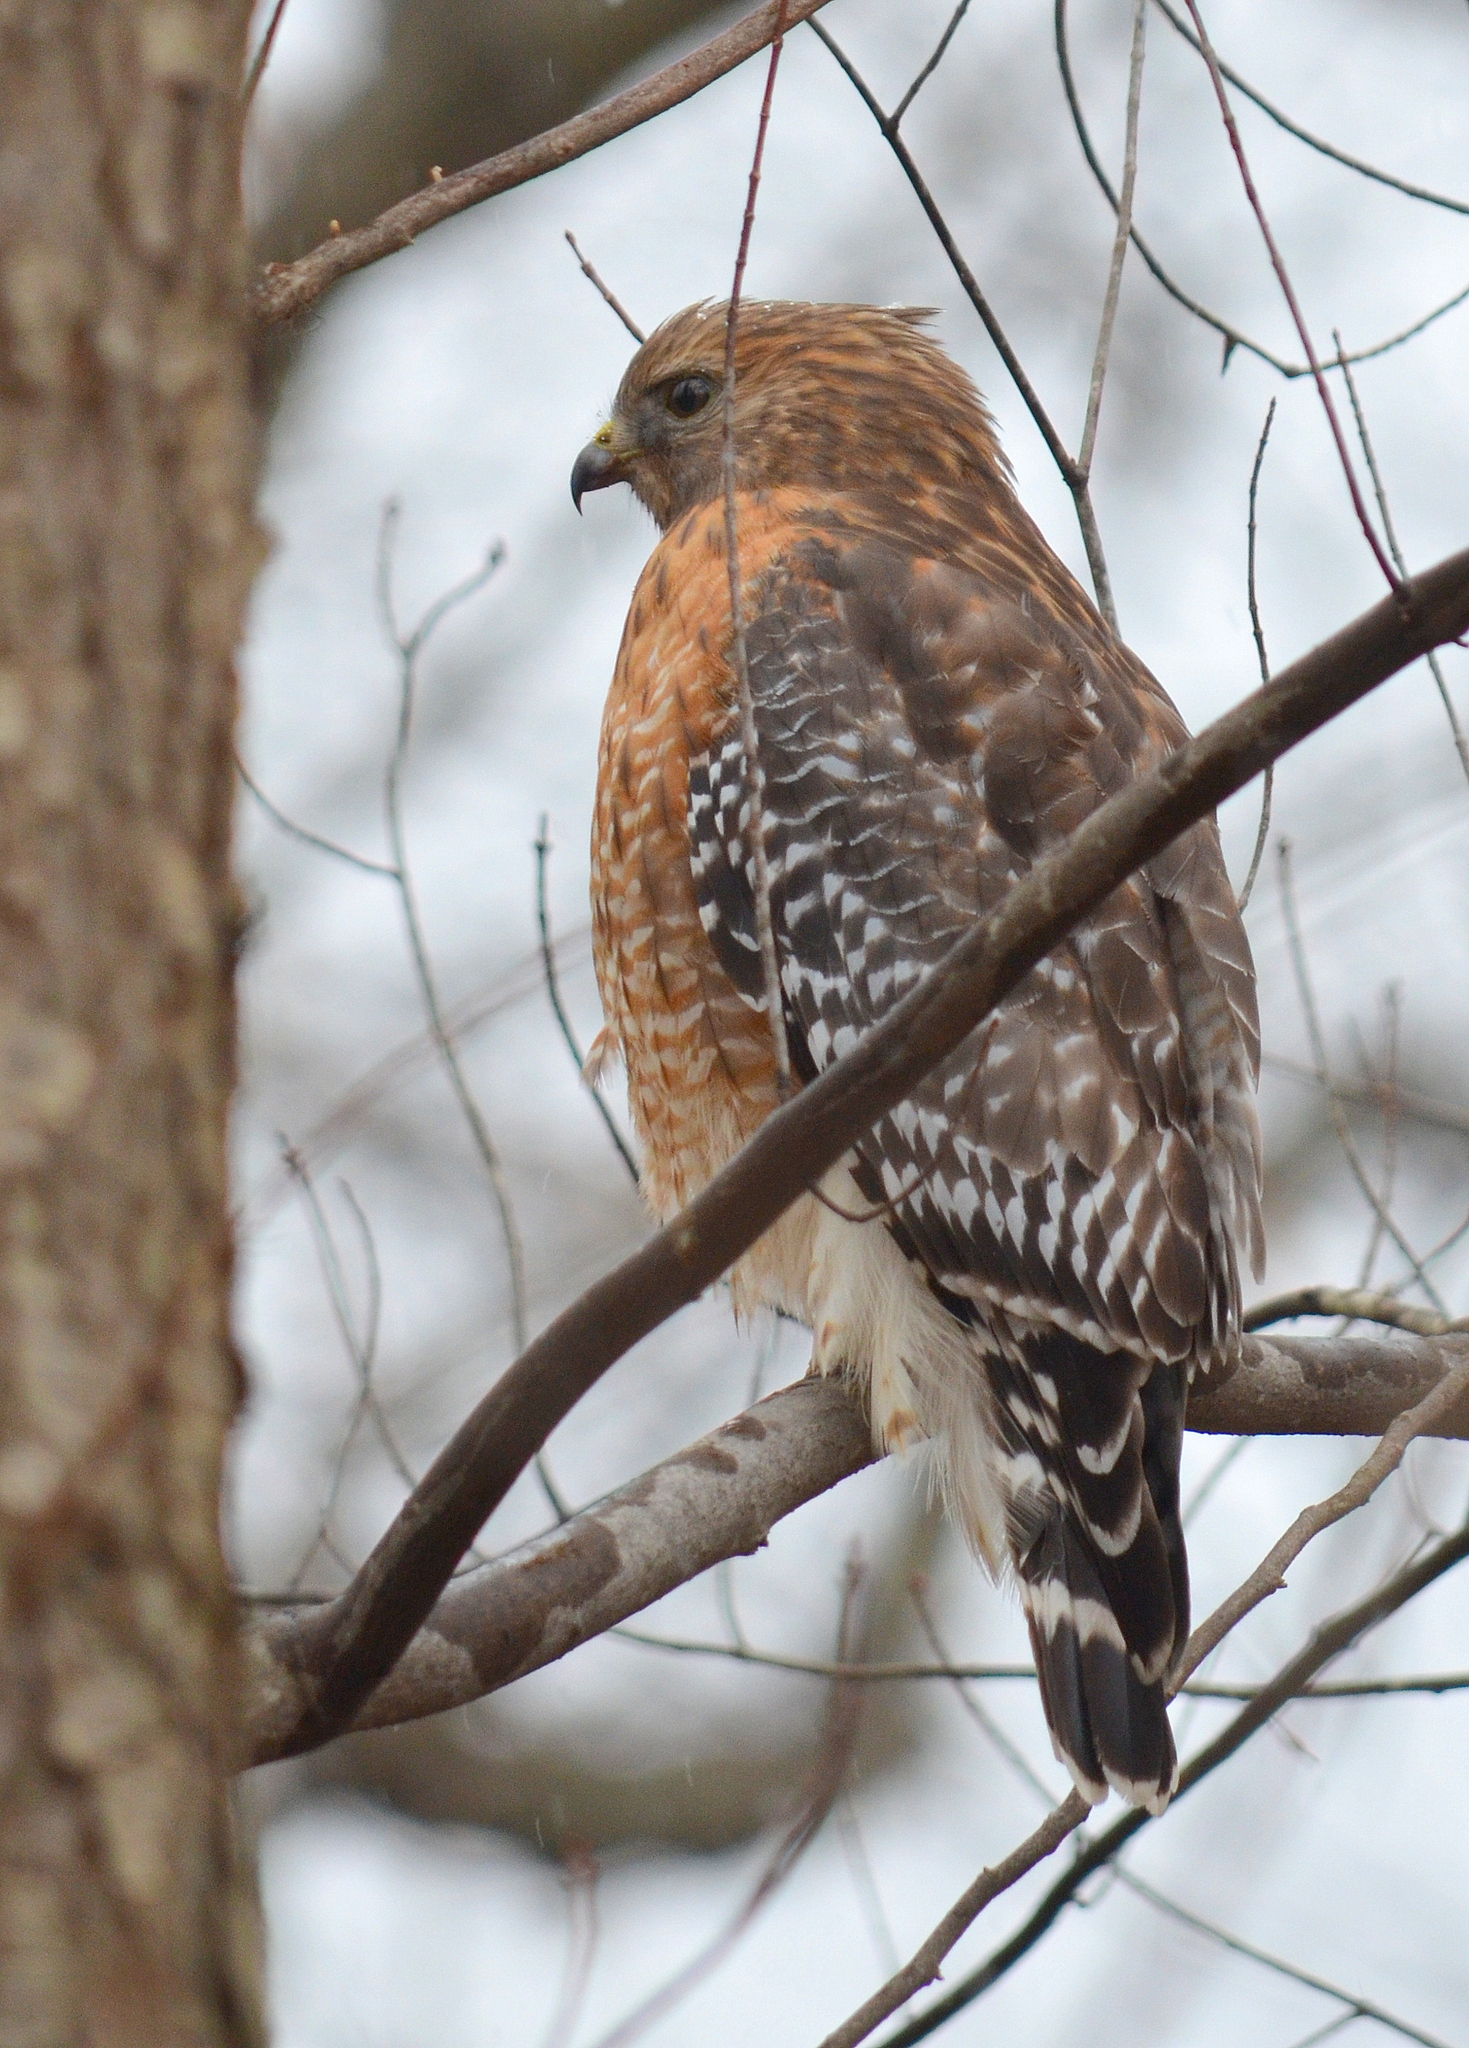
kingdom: Animalia
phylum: Chordata
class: Aves
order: Accipitriformes
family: Accipitridae
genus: Buteo
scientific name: Buteo lineatus
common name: Red-shouldered hawk
